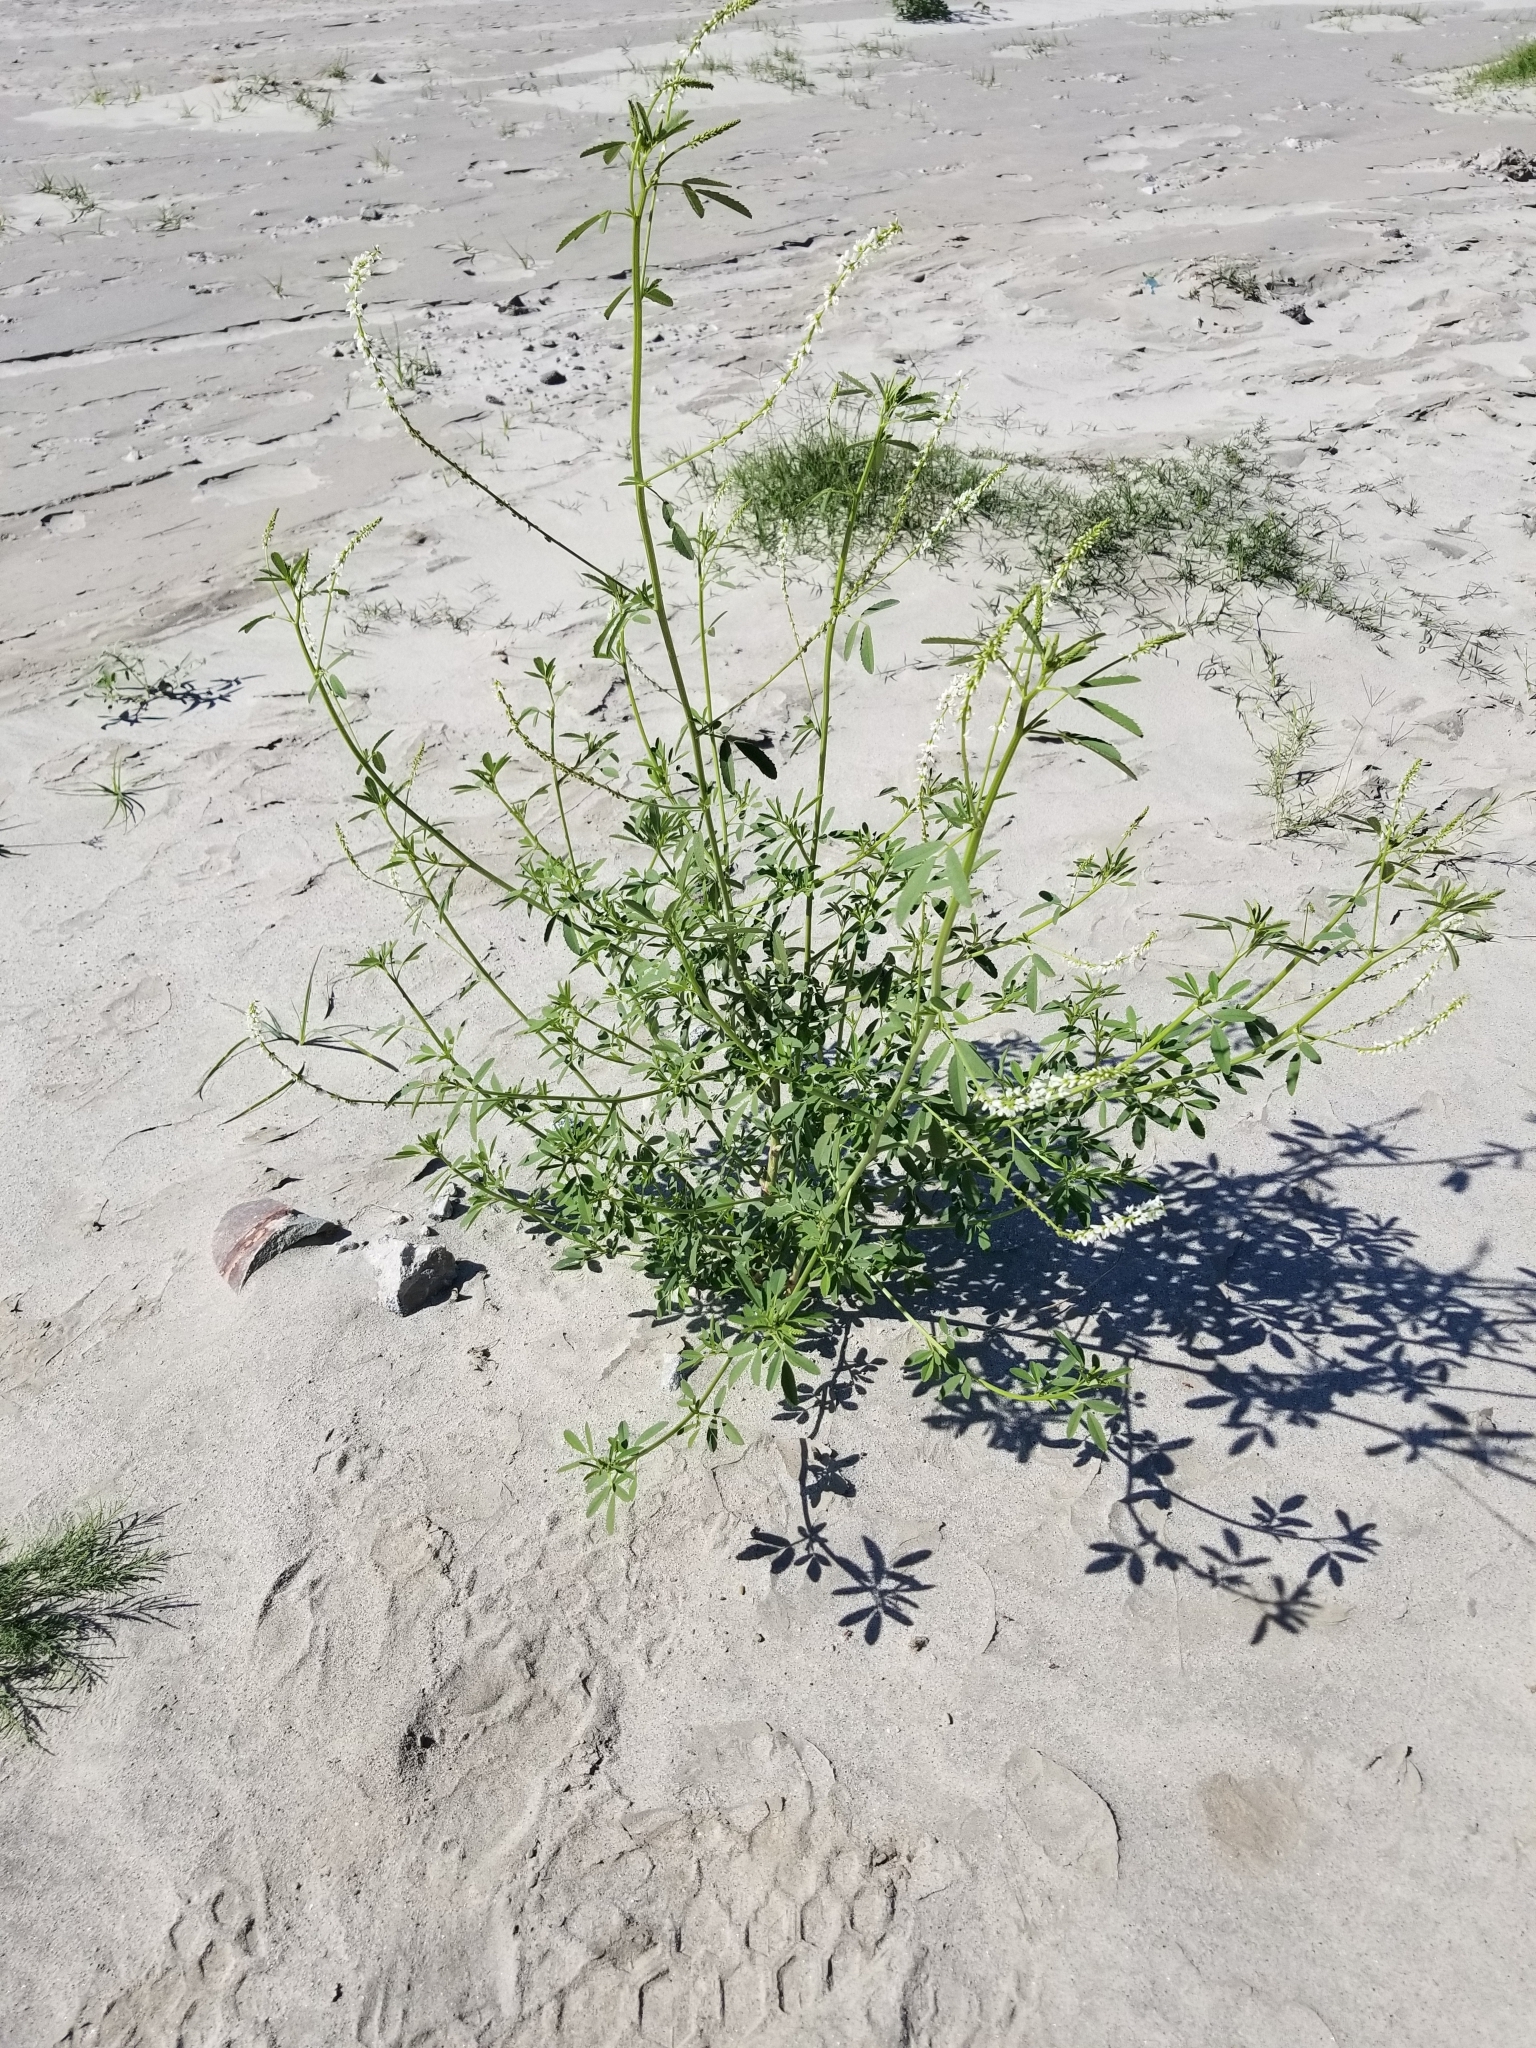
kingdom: Plantae
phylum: Tracheophyta
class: Magnoliopsida
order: Fabales
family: Fabaceae
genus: Melilotus
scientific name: Melilotus albus
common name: White melilot
